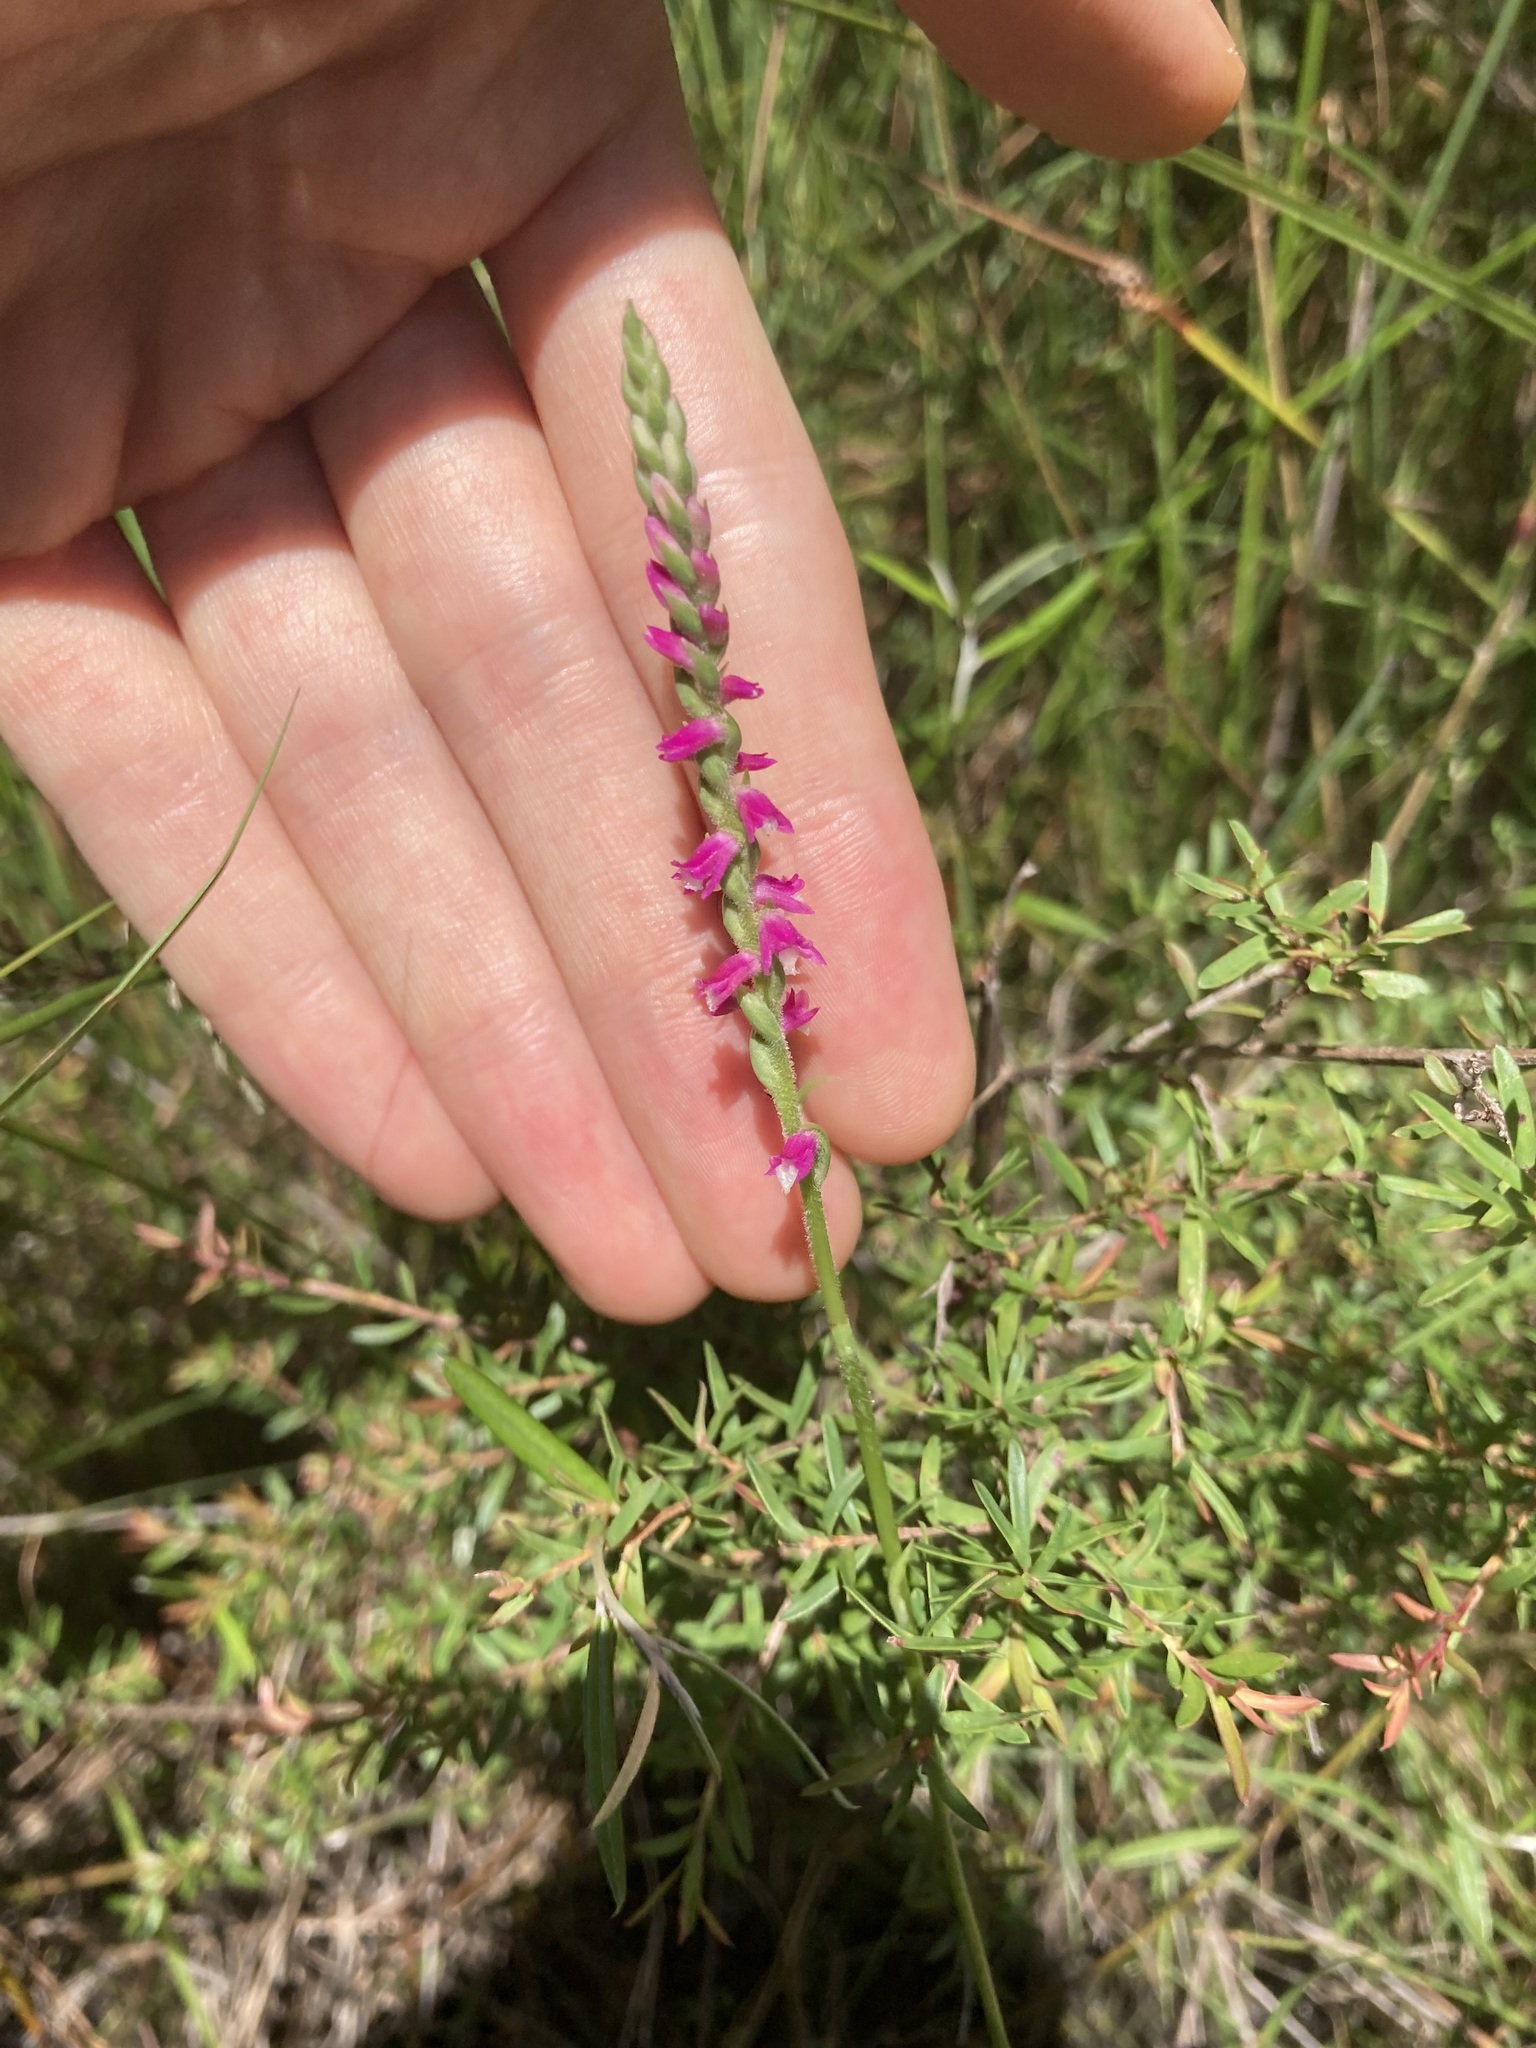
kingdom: Plantae
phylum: Tracheophyta
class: Liliopsida
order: Asparagales
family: Orchidaceae
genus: Spiranthes
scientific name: Spiranthes australis
